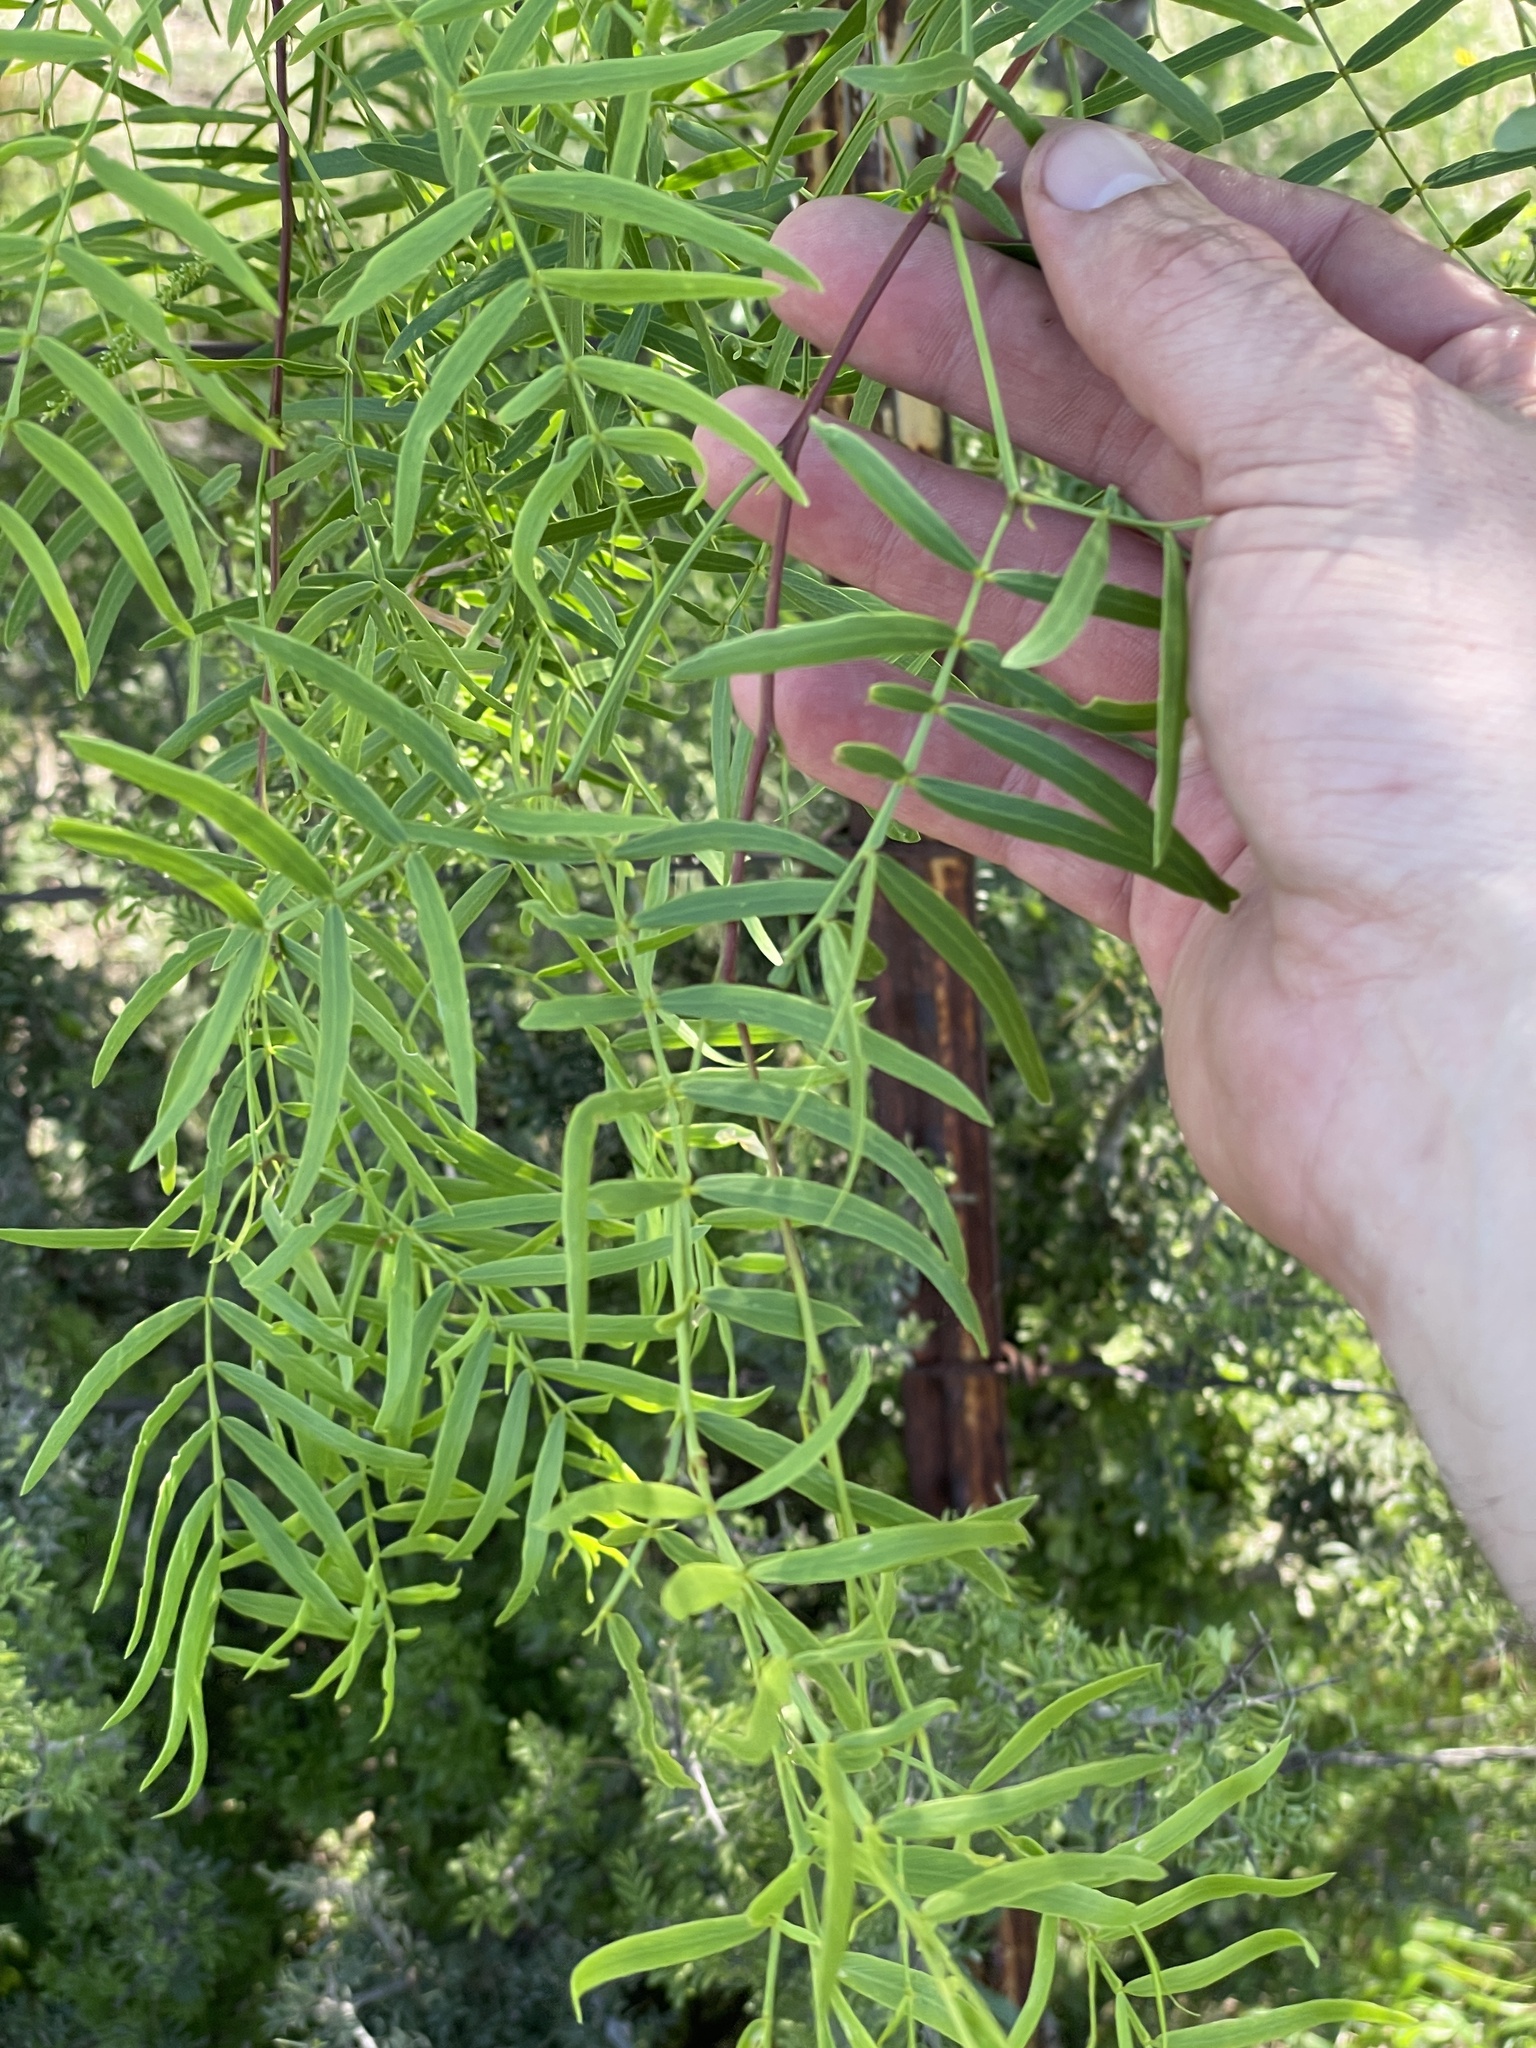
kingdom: Plantae
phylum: Tracheophyta
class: Magnoliopsida
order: Fabales
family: Fabaceae
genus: Prosopis
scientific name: Prosopis glandulosa
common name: Honey mesquite
